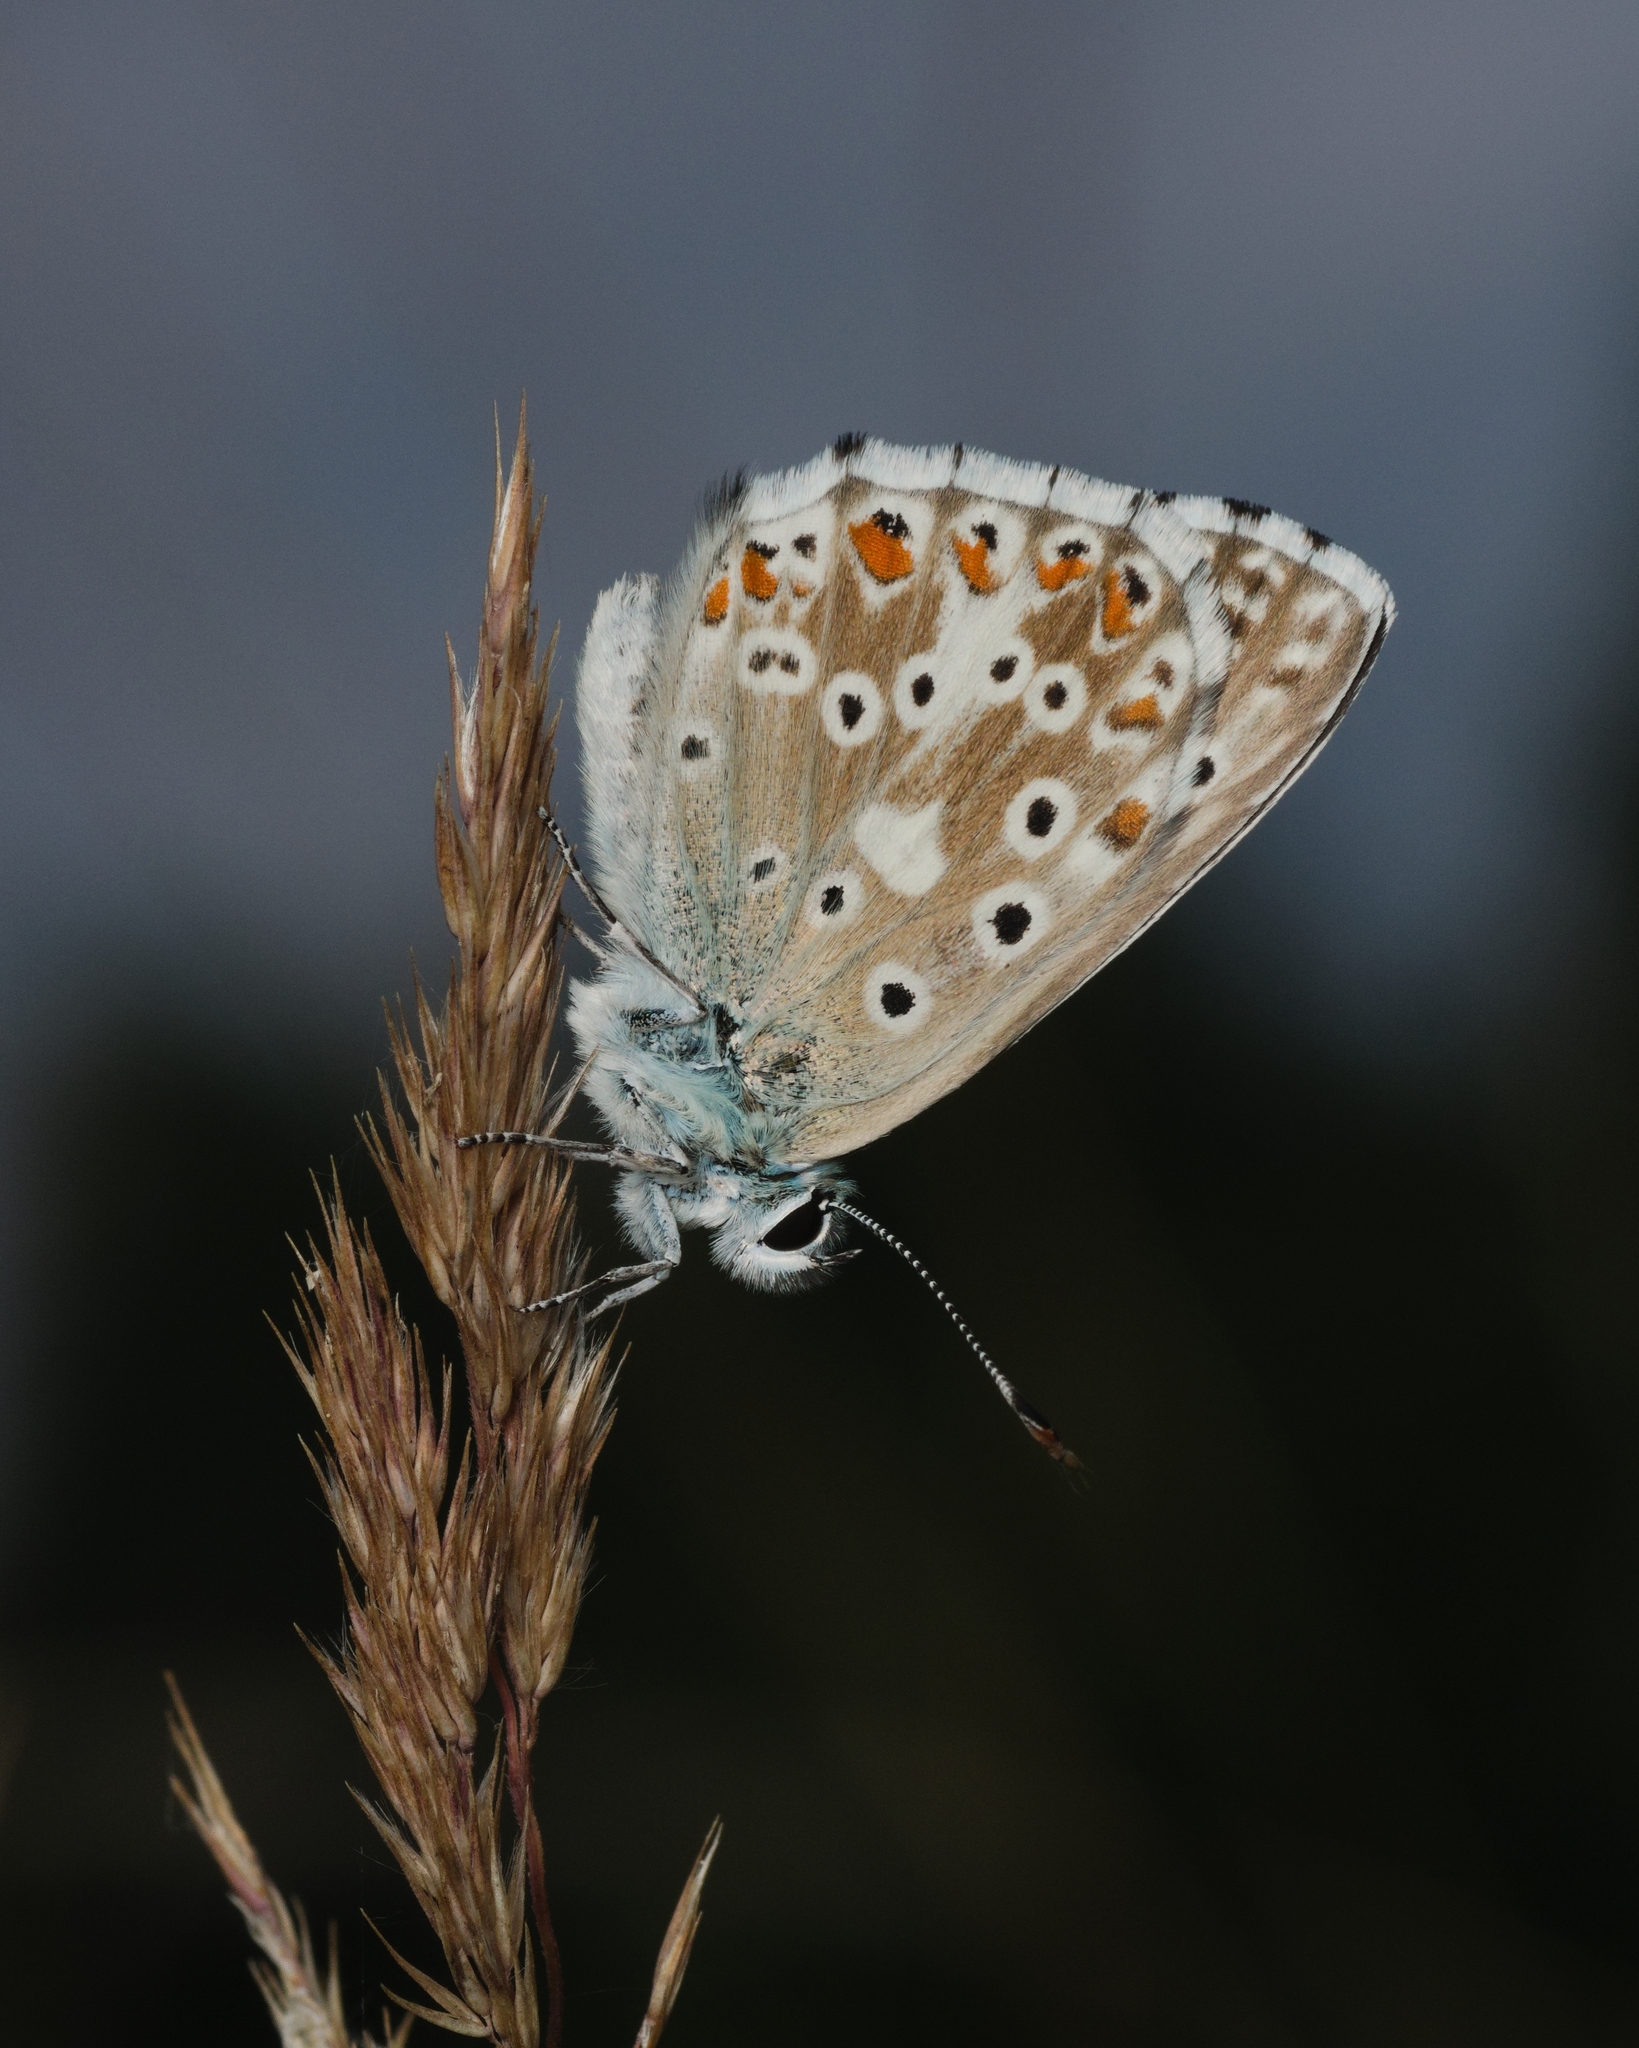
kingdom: Animalia
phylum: Arthropoda
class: Insecta
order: Lepidoptera
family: Lycaenidae
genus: Lysandra
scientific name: Lysandra coridon
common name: Chalkhill blue
